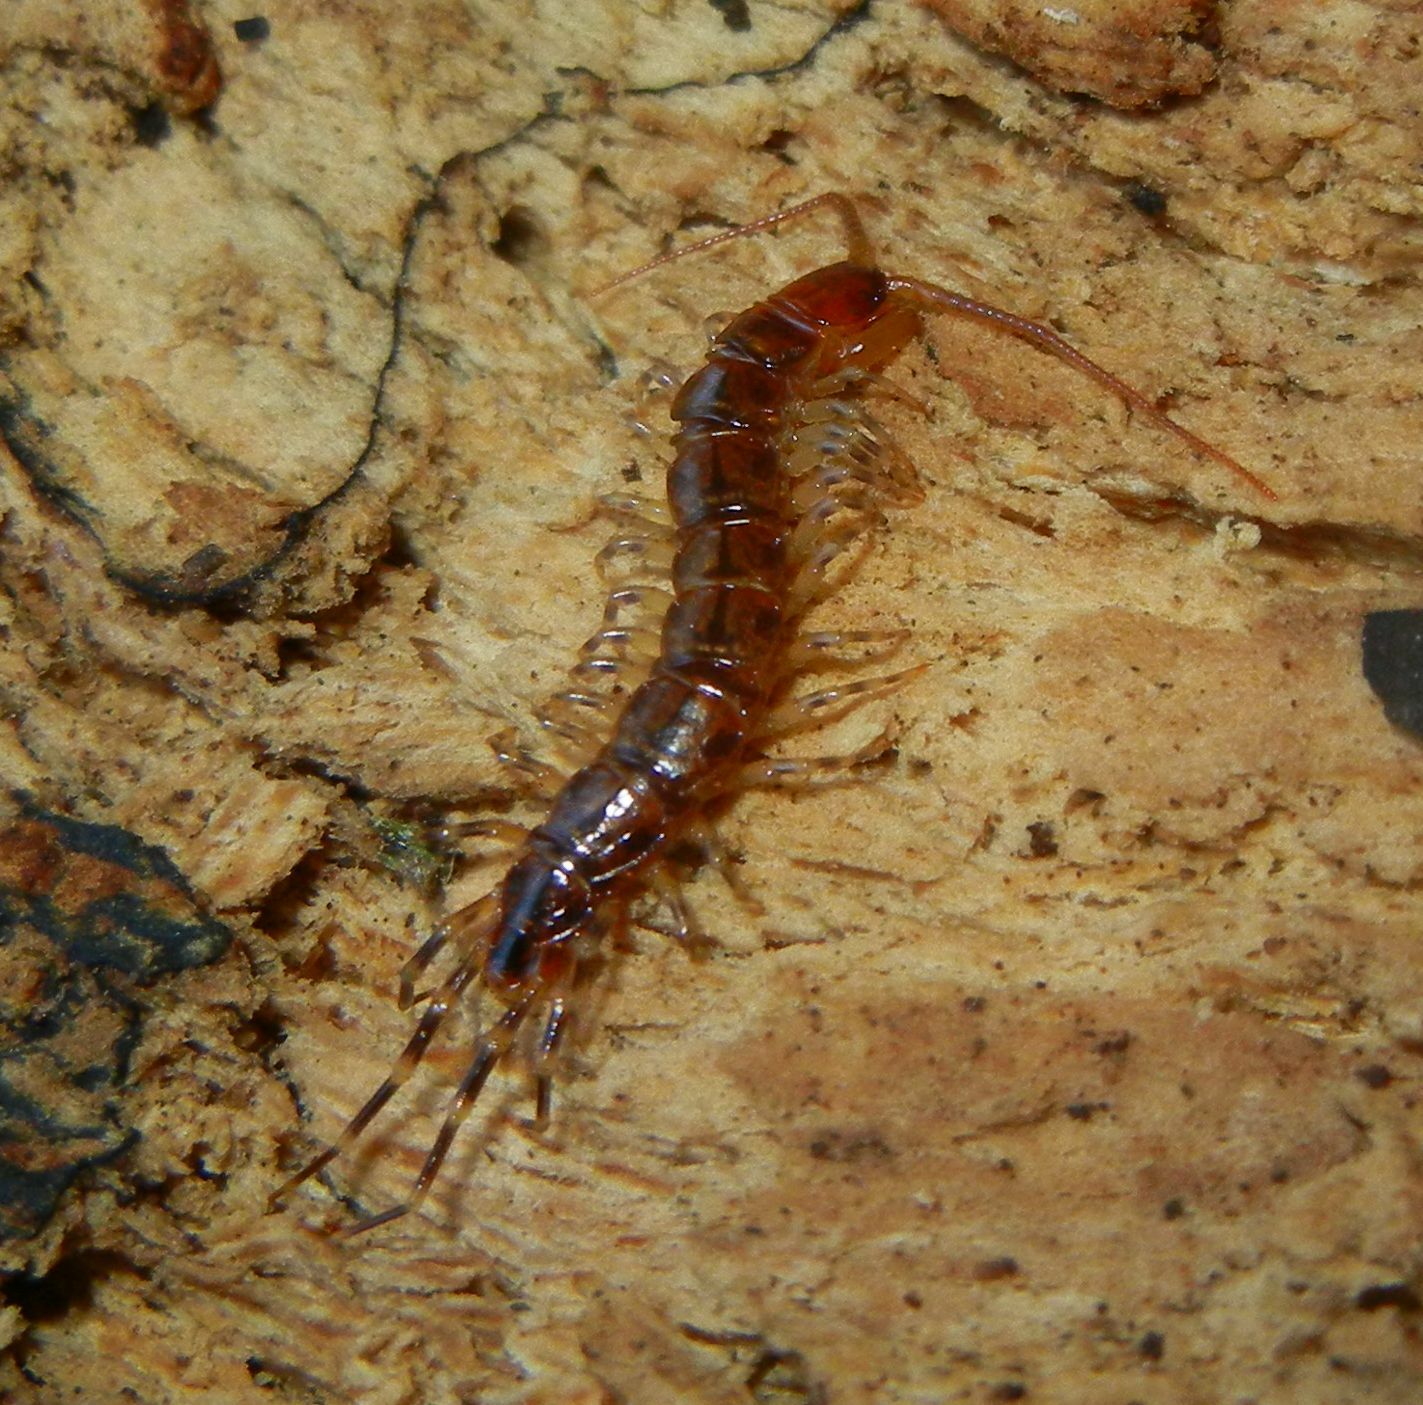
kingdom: Animalia
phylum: Arthropoda
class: Chilopoda
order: Lithobiomorpha
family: Lithobiidae
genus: Lithobius
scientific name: Lithobius variegatus
